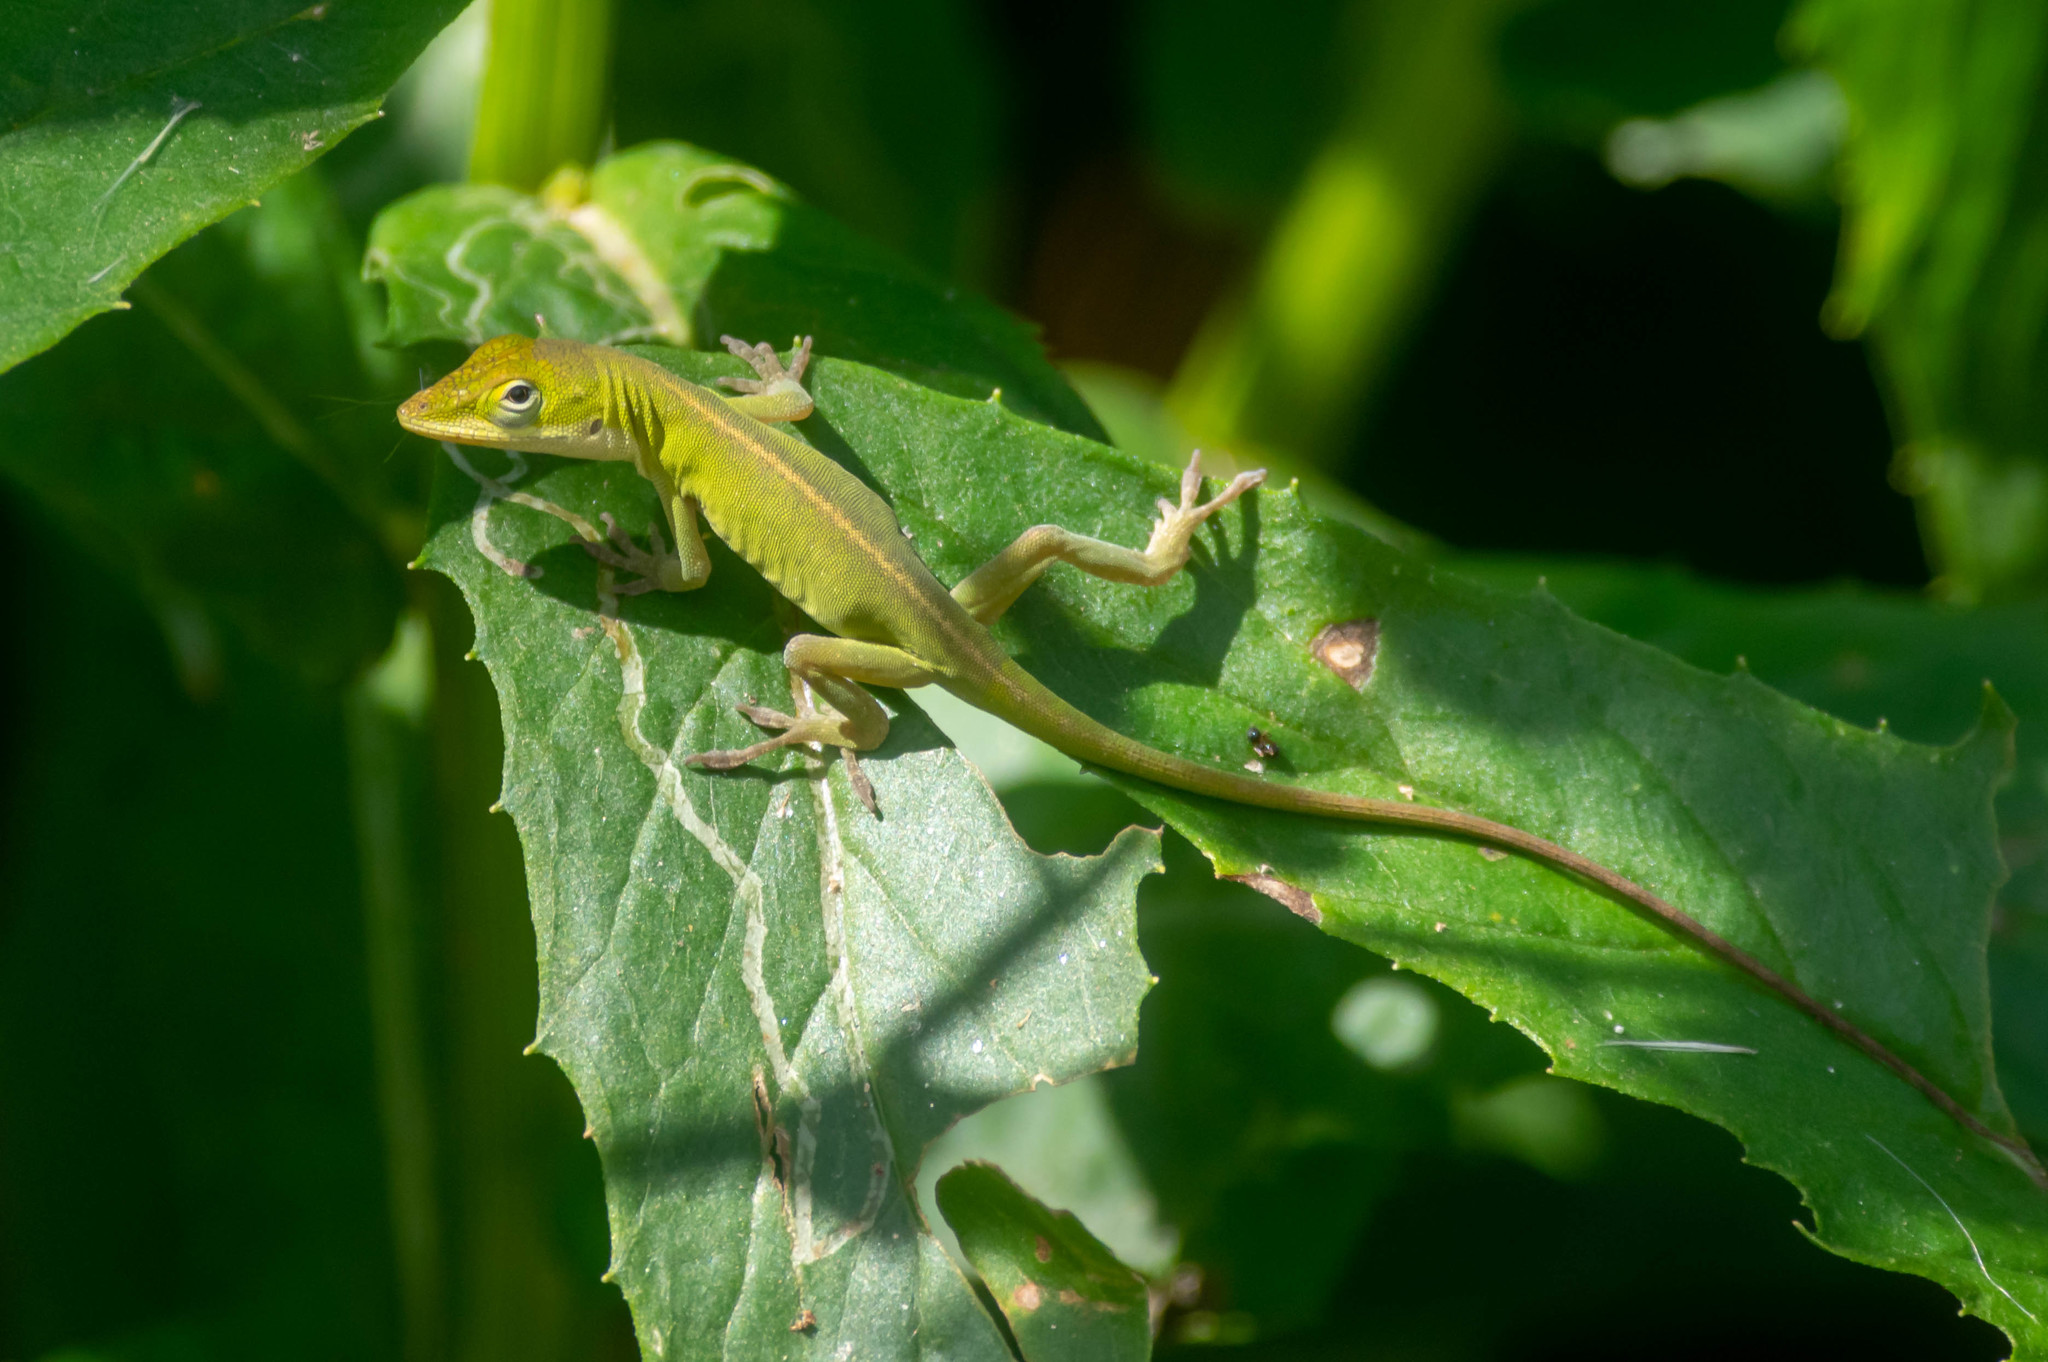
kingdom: Animalia
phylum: Chordata
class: Squamata
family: Dactyloidae
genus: Anolis
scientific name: Anolis carolinensis
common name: Green anole
